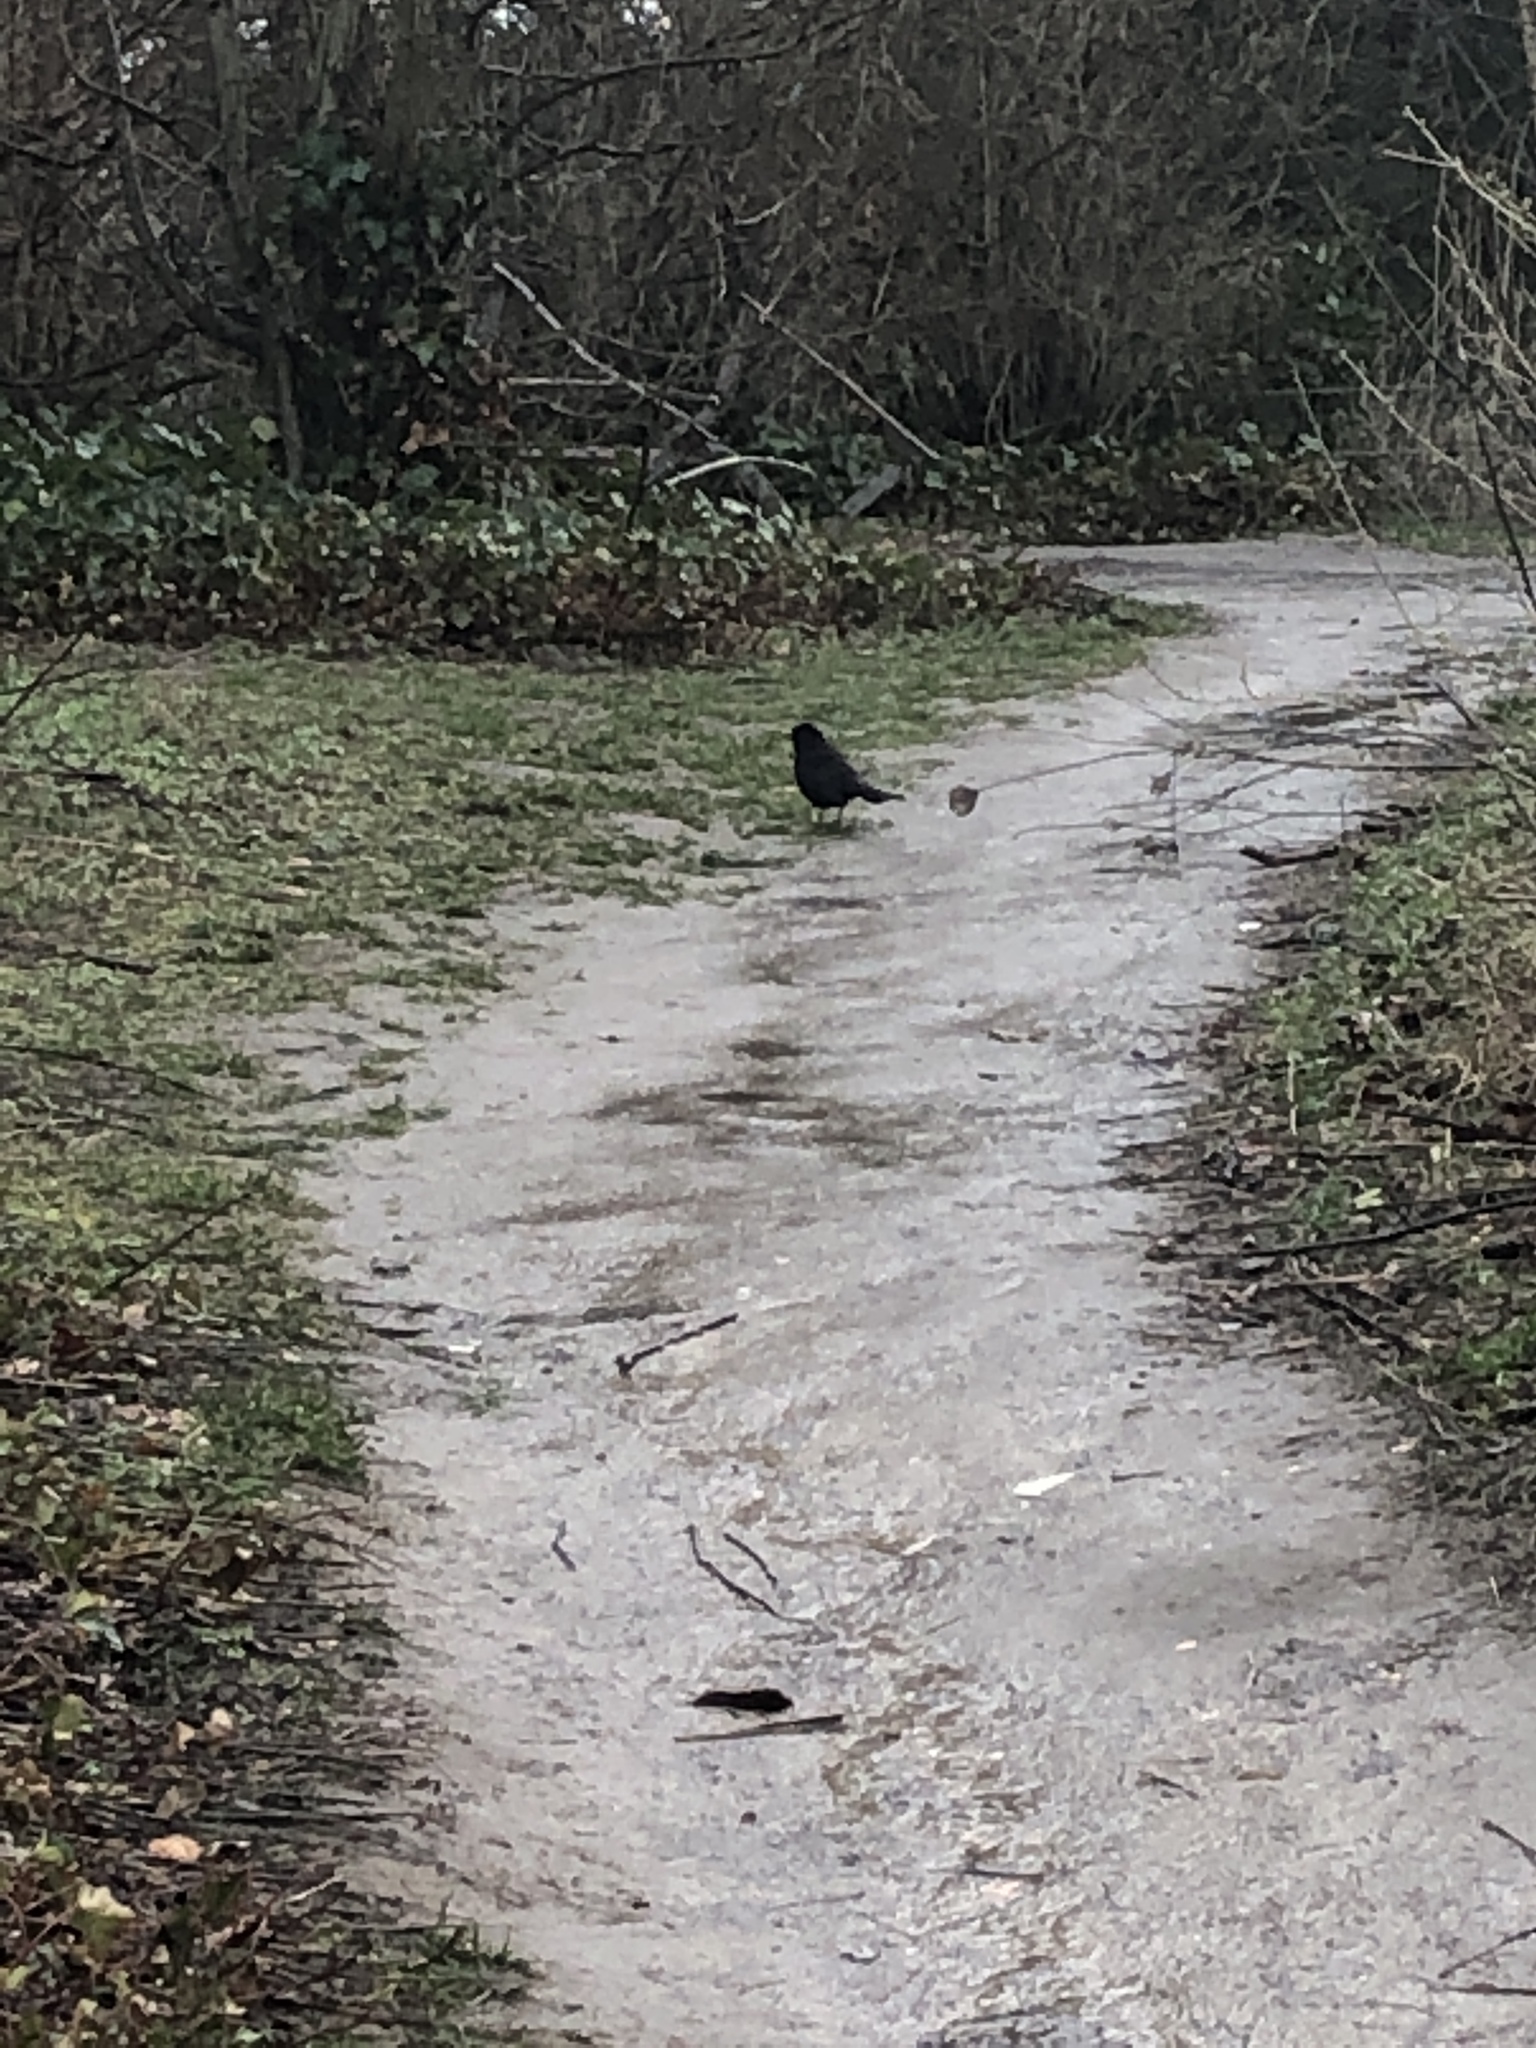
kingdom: Animalia
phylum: Chordata
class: Aves
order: Passeriformes
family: Turdidae
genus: Turdus
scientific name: Turdus merula
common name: Common blackbird
